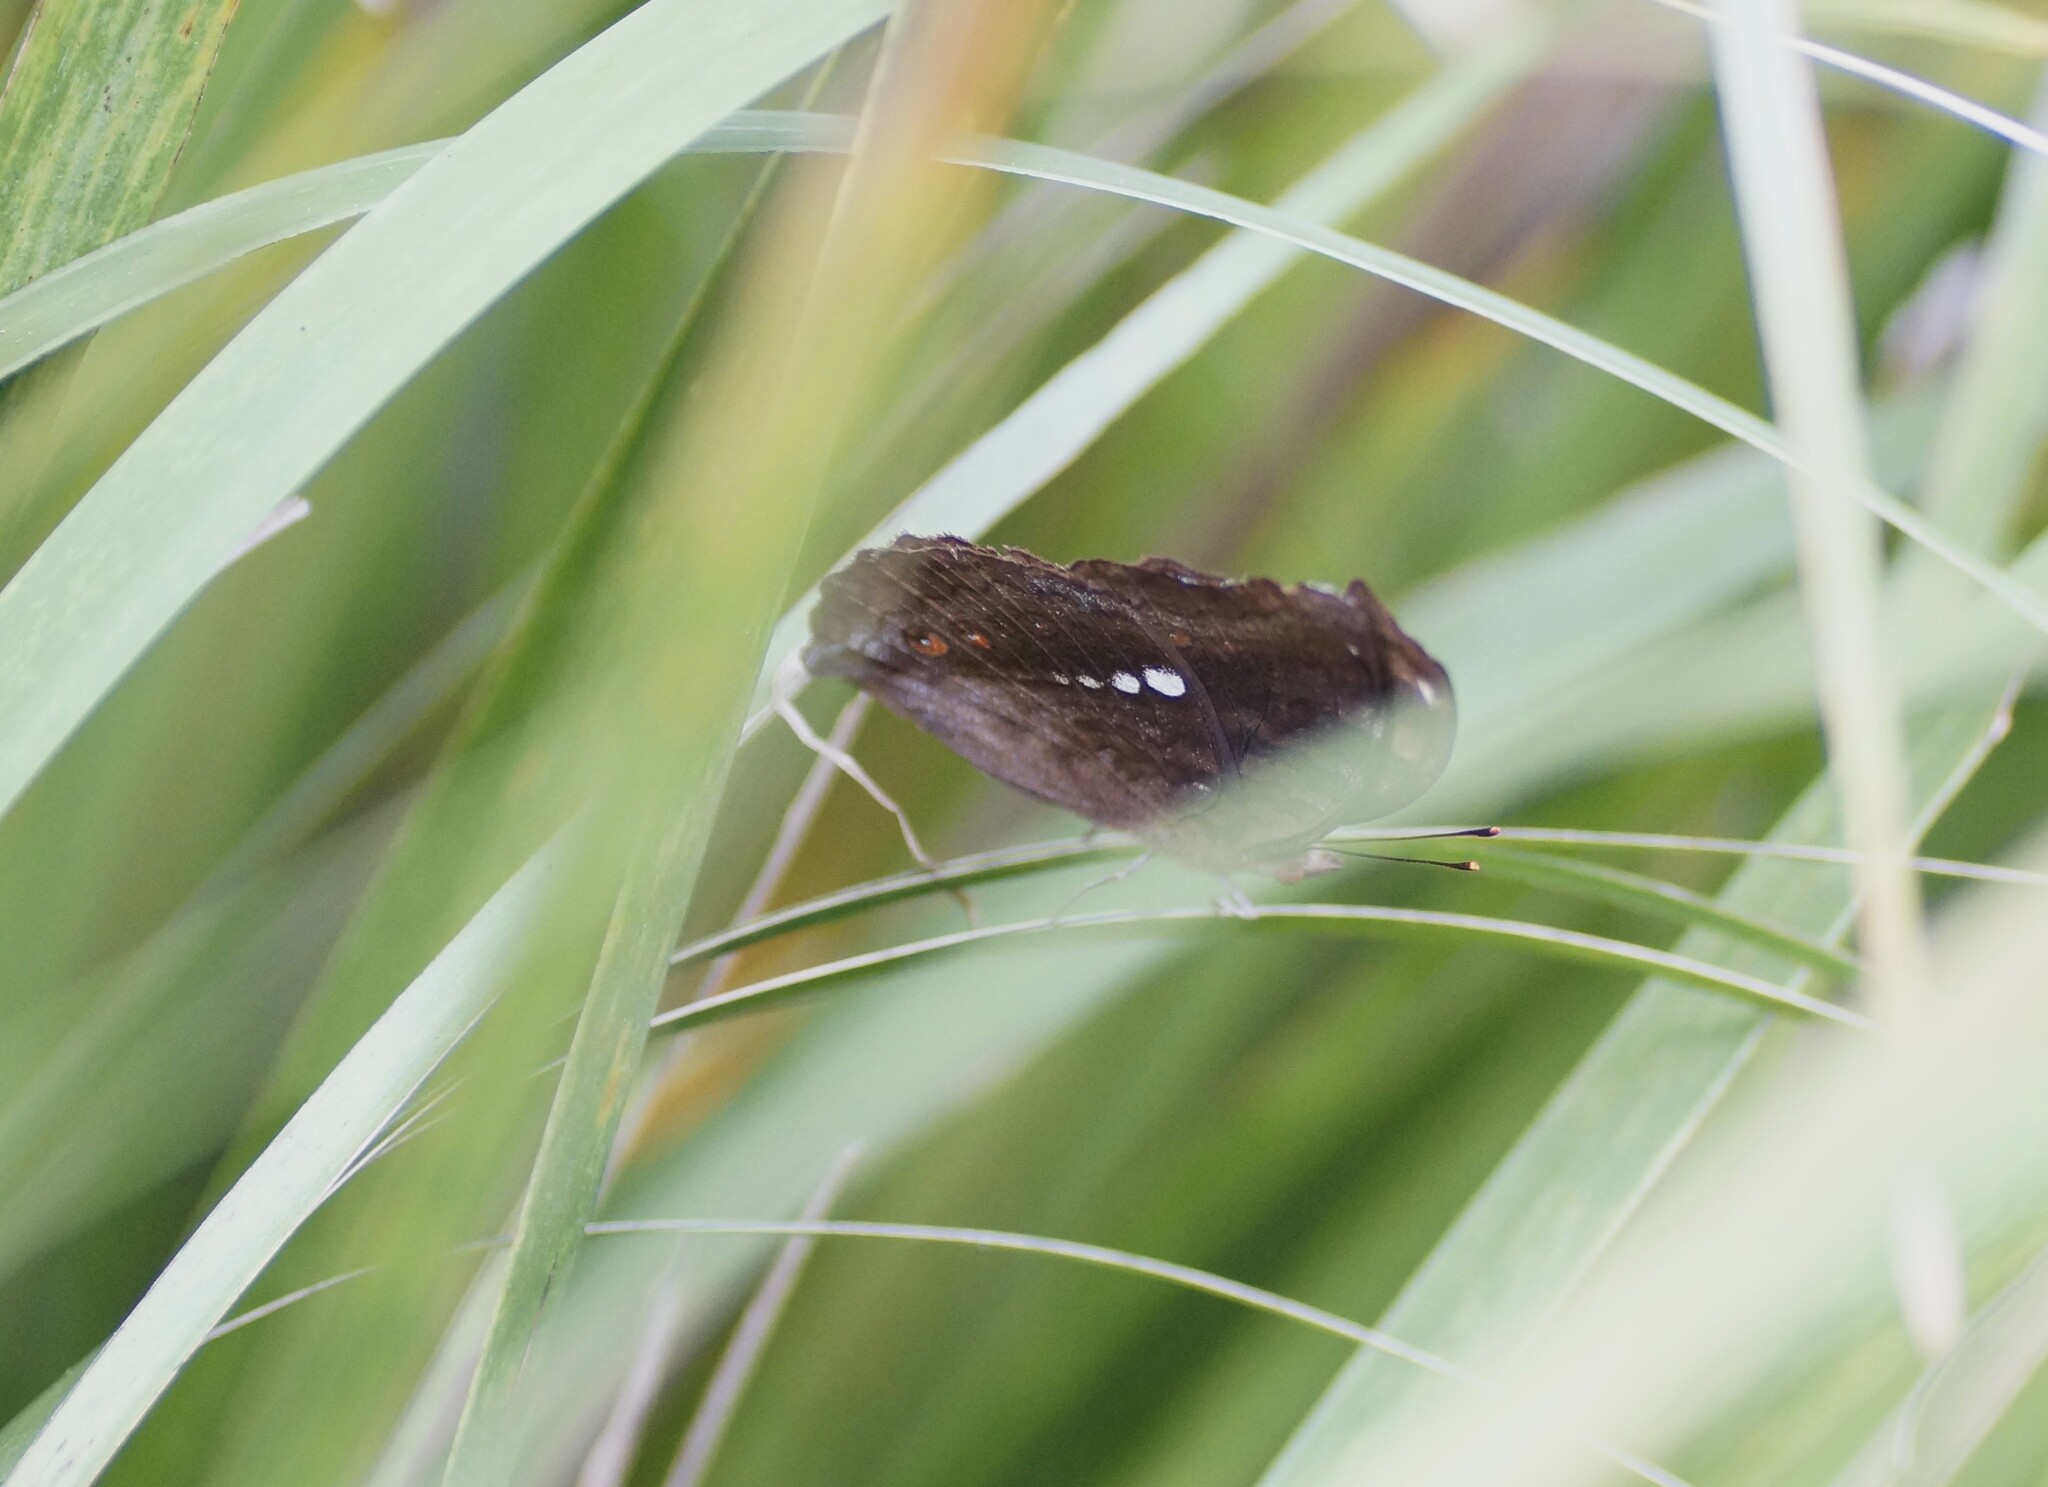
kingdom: Animalia
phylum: Arthropoda
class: Insecta
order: Lepidoptera
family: Nymphalidae
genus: Junonia
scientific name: Junonia hedonia
